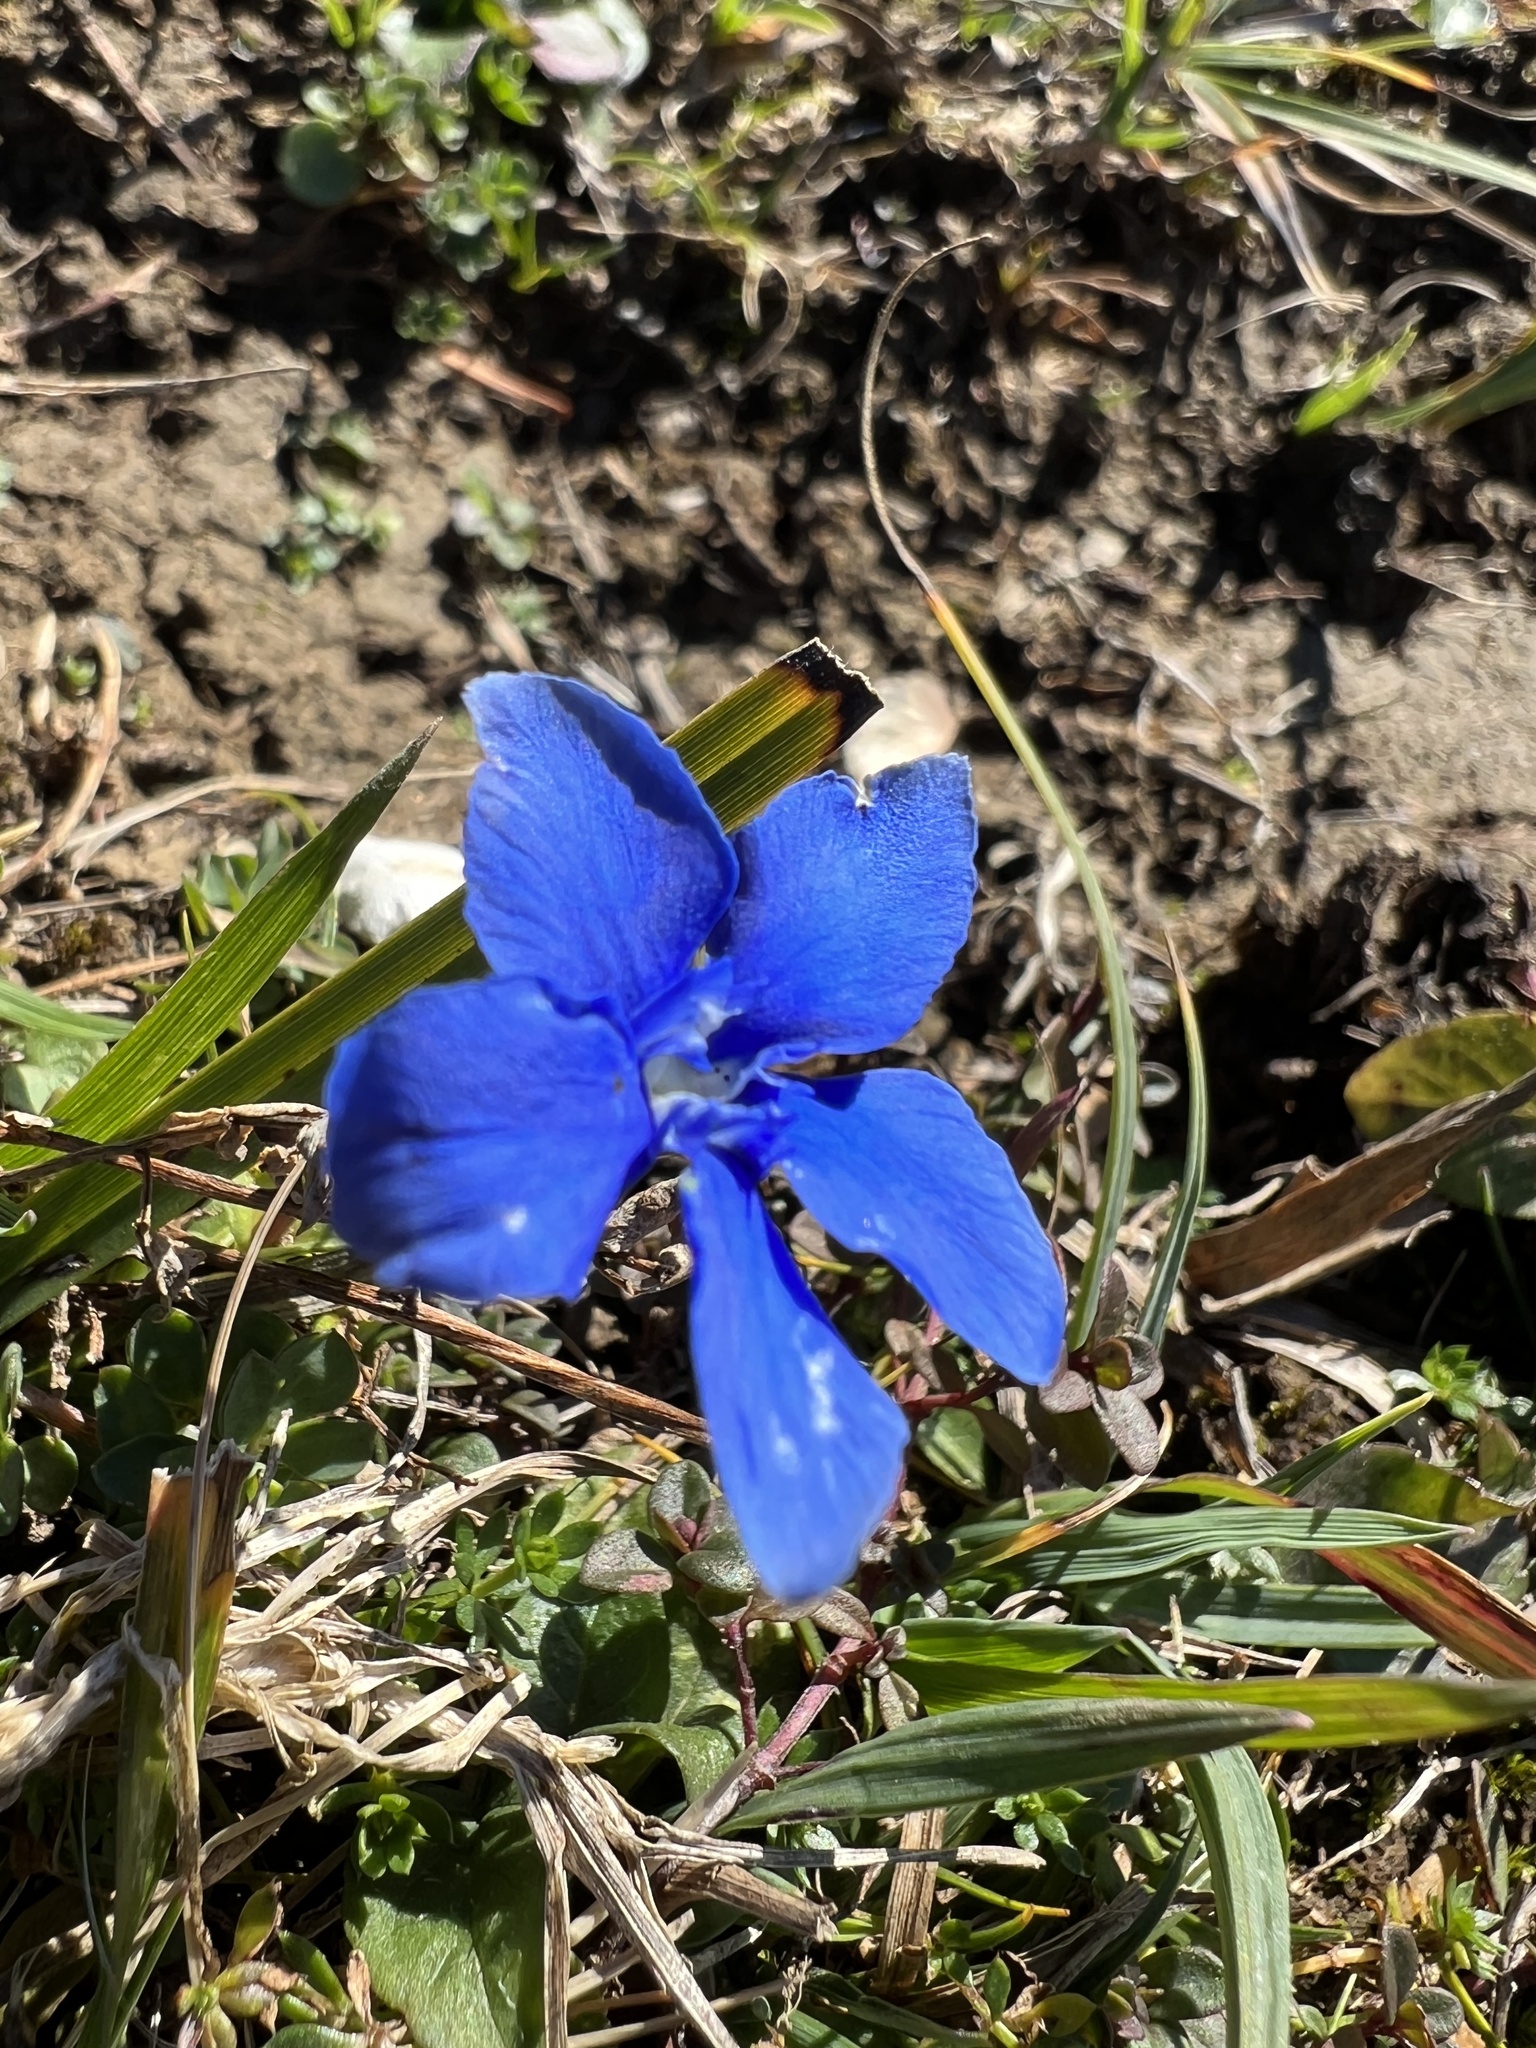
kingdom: Plantae
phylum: Tracheophyta
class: Magnoliopsida
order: Gentianales
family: Gentianaceae
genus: Gentiana
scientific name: Gentiana verna
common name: Spring gentian
